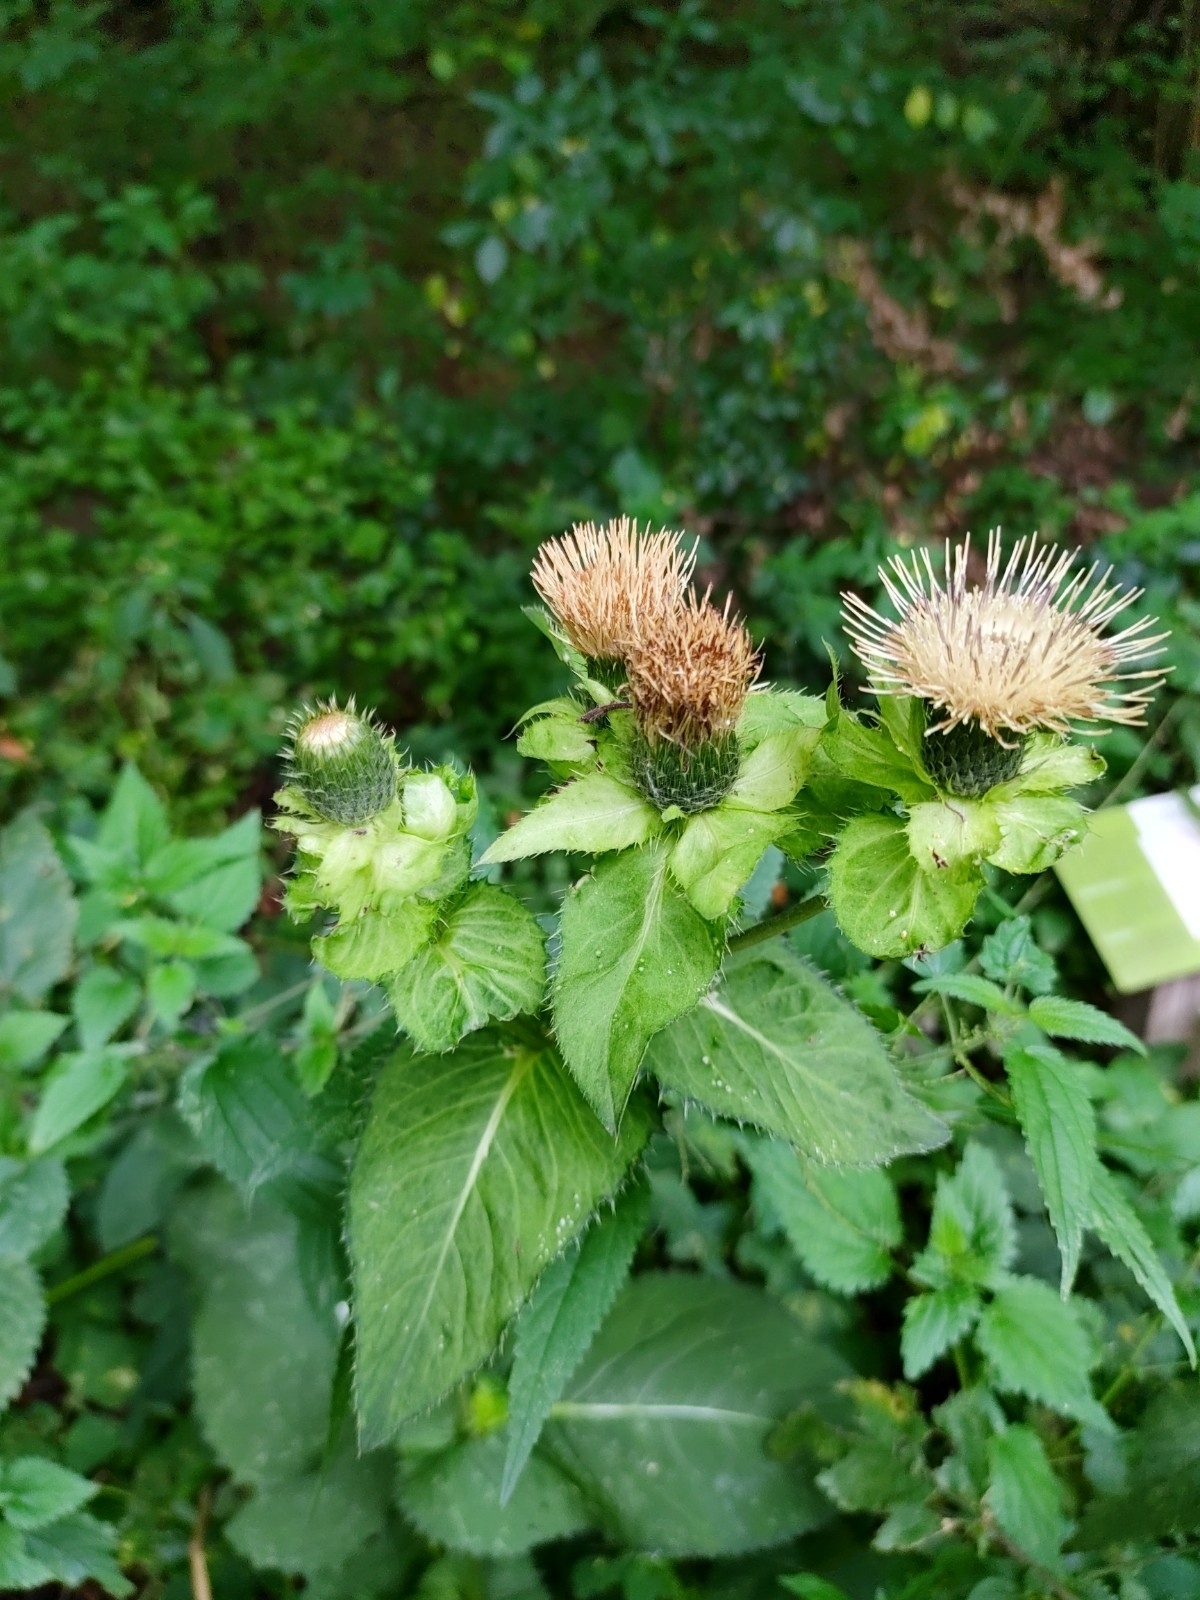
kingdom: Plantae
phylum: Tracheophyta
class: Magnoliopsida
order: Asterales
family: Asteraceae
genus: Cirsium
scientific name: Cirsium oleraceum
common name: Cabbage thistle
